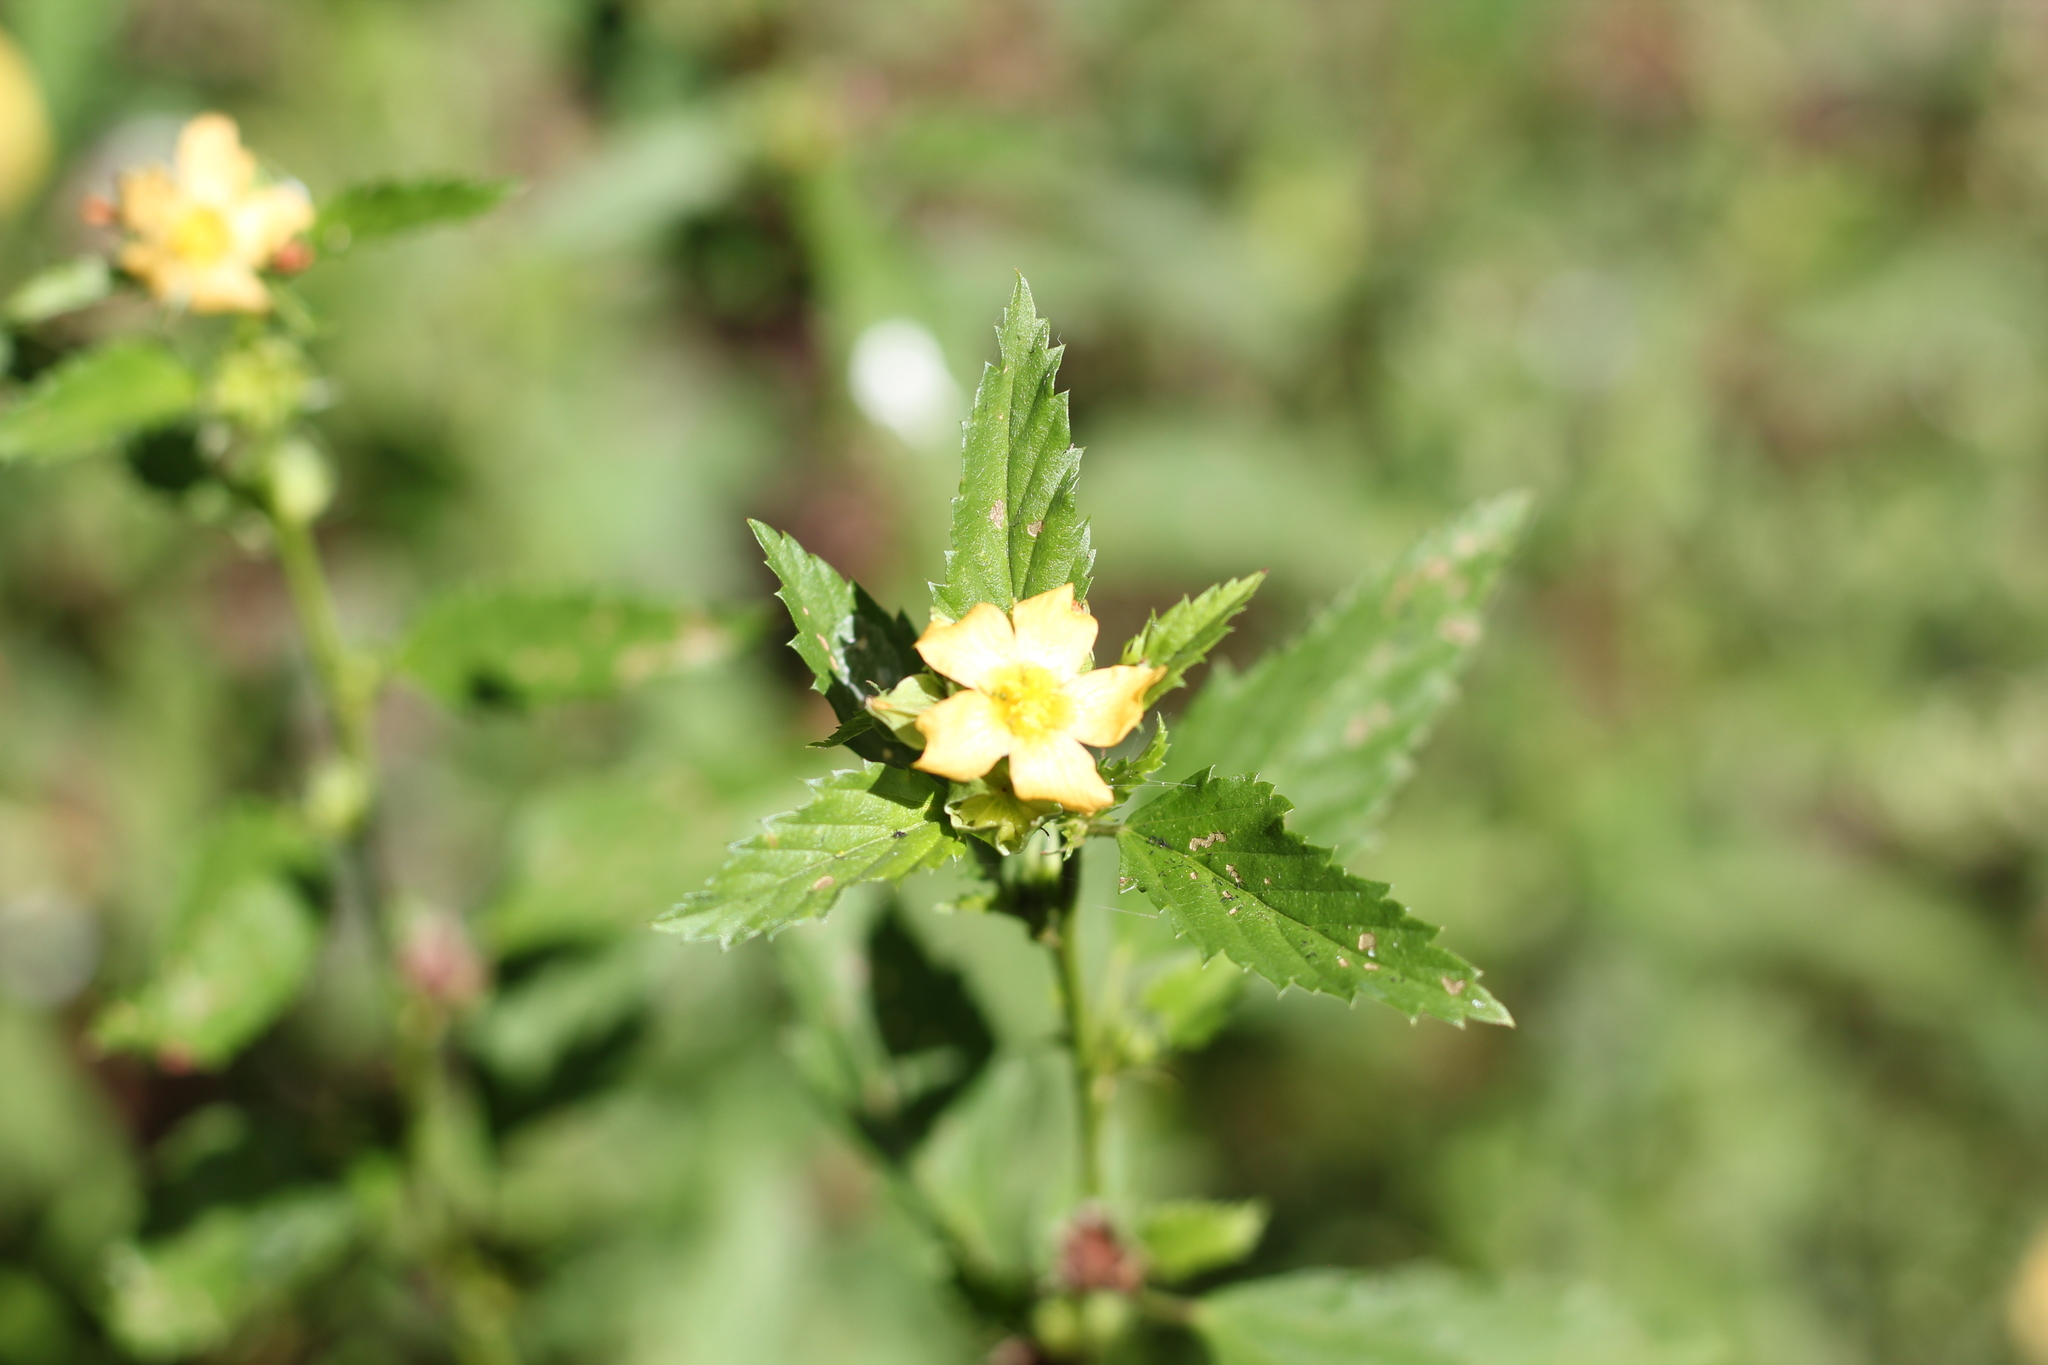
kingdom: Plantae
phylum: Tracheophyta
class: Magnoliopsida
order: Malvales
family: Malvaceae
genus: Sida
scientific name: Sida rhombifolia
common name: Queensland-hemp
